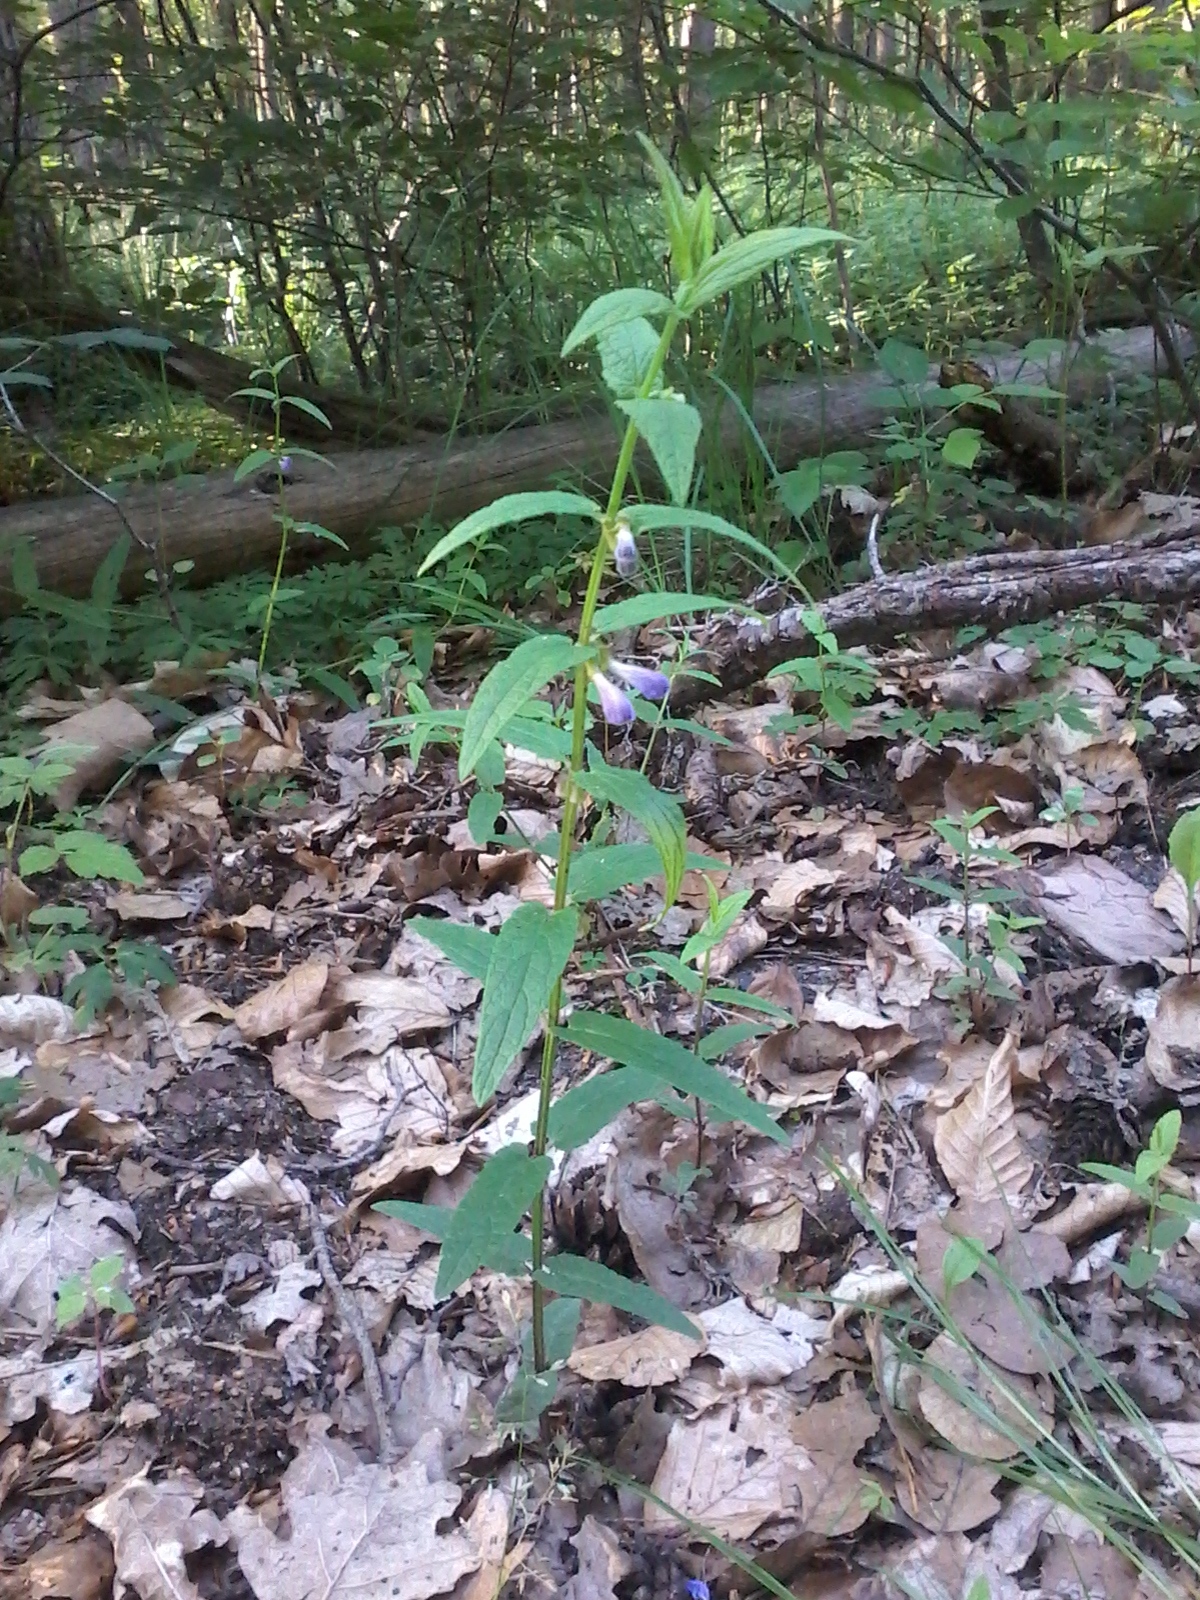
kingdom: Plantae
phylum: Tracheophyta
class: Magnoliopsida
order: Lamiales
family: Lamiaceae
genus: Scutellaria
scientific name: Scutellaria galericulata
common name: Skullcap
